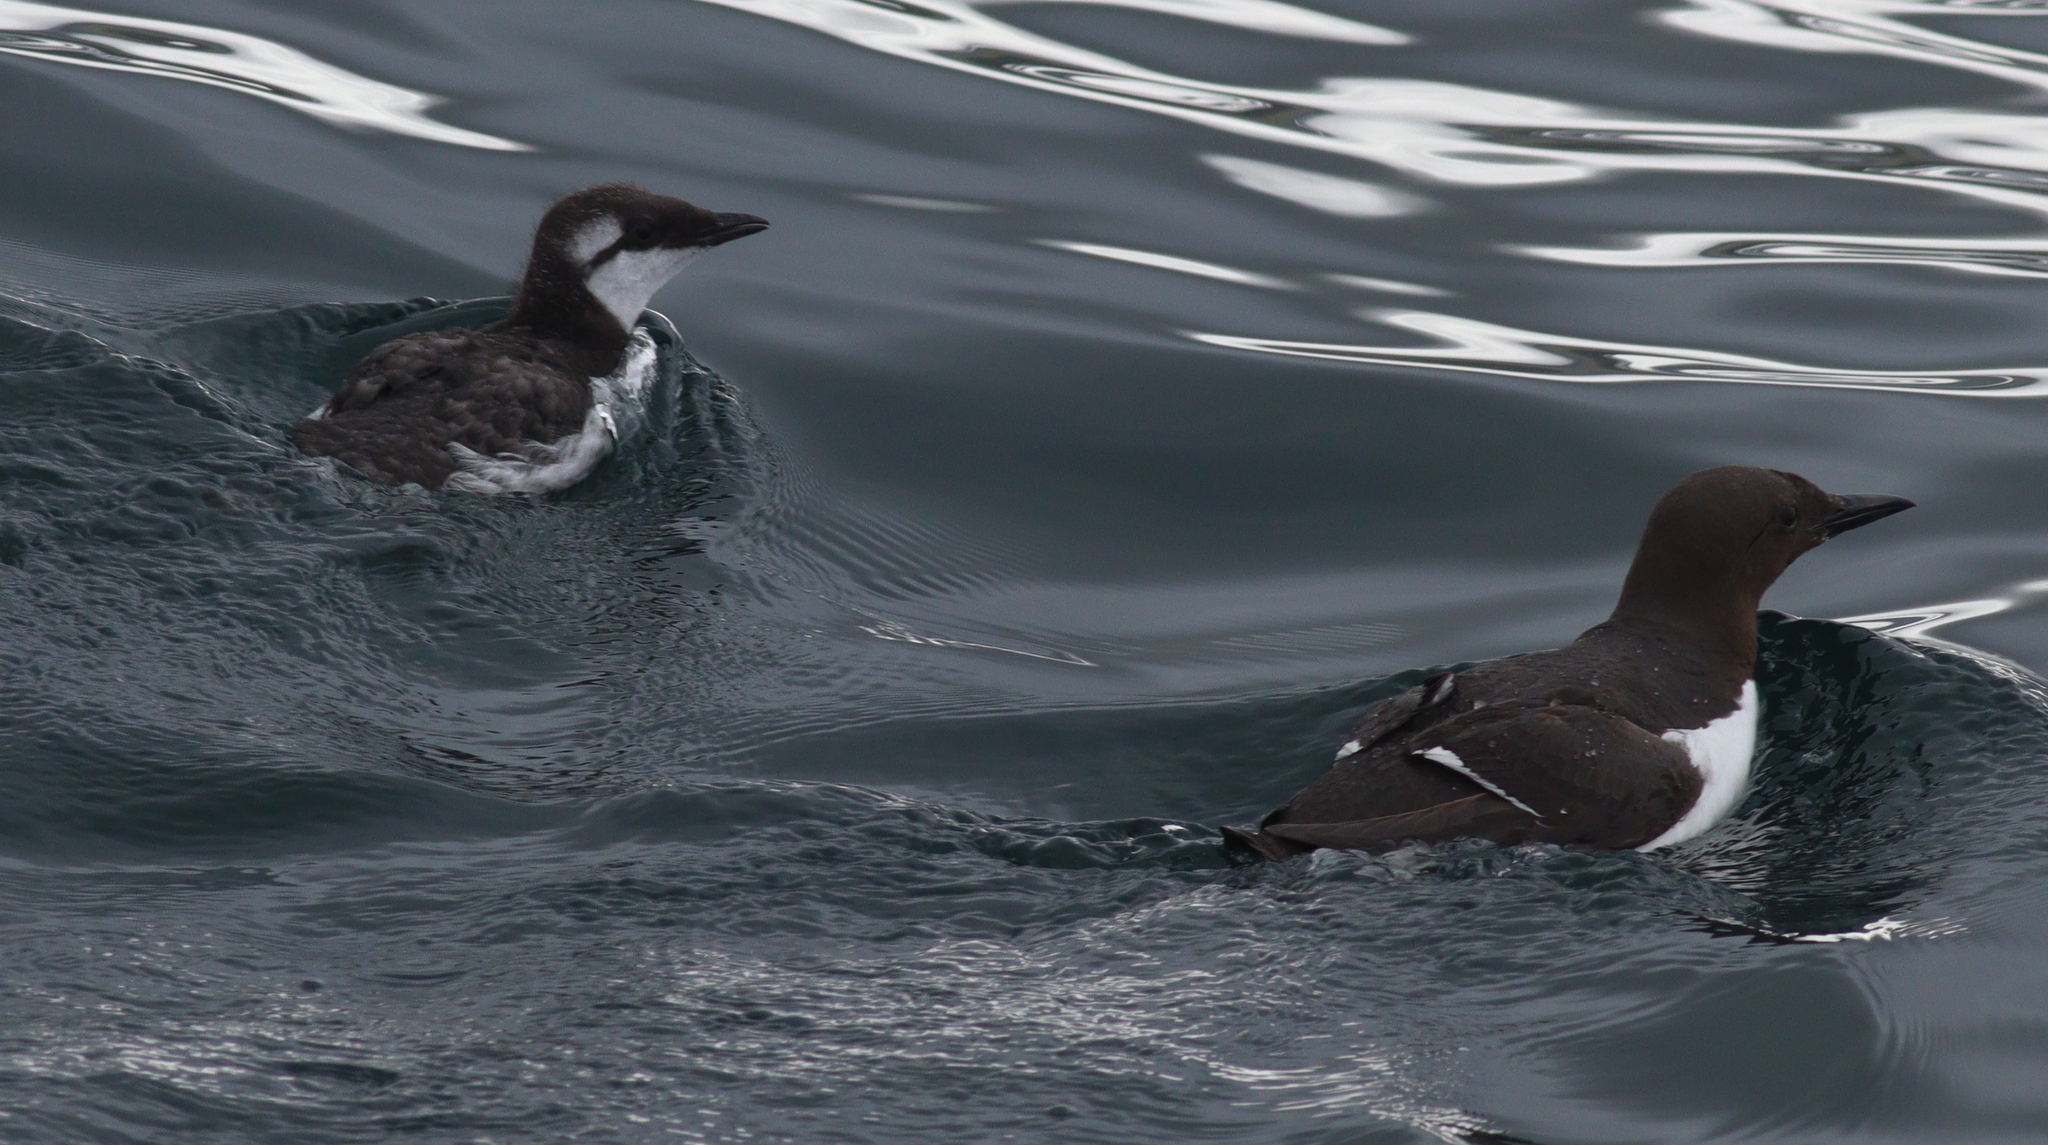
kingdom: Animalia
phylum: Chordata
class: Aves
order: Charadriiformes
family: Alcidae
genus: Uria
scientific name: Uria aalge
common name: Common murre
